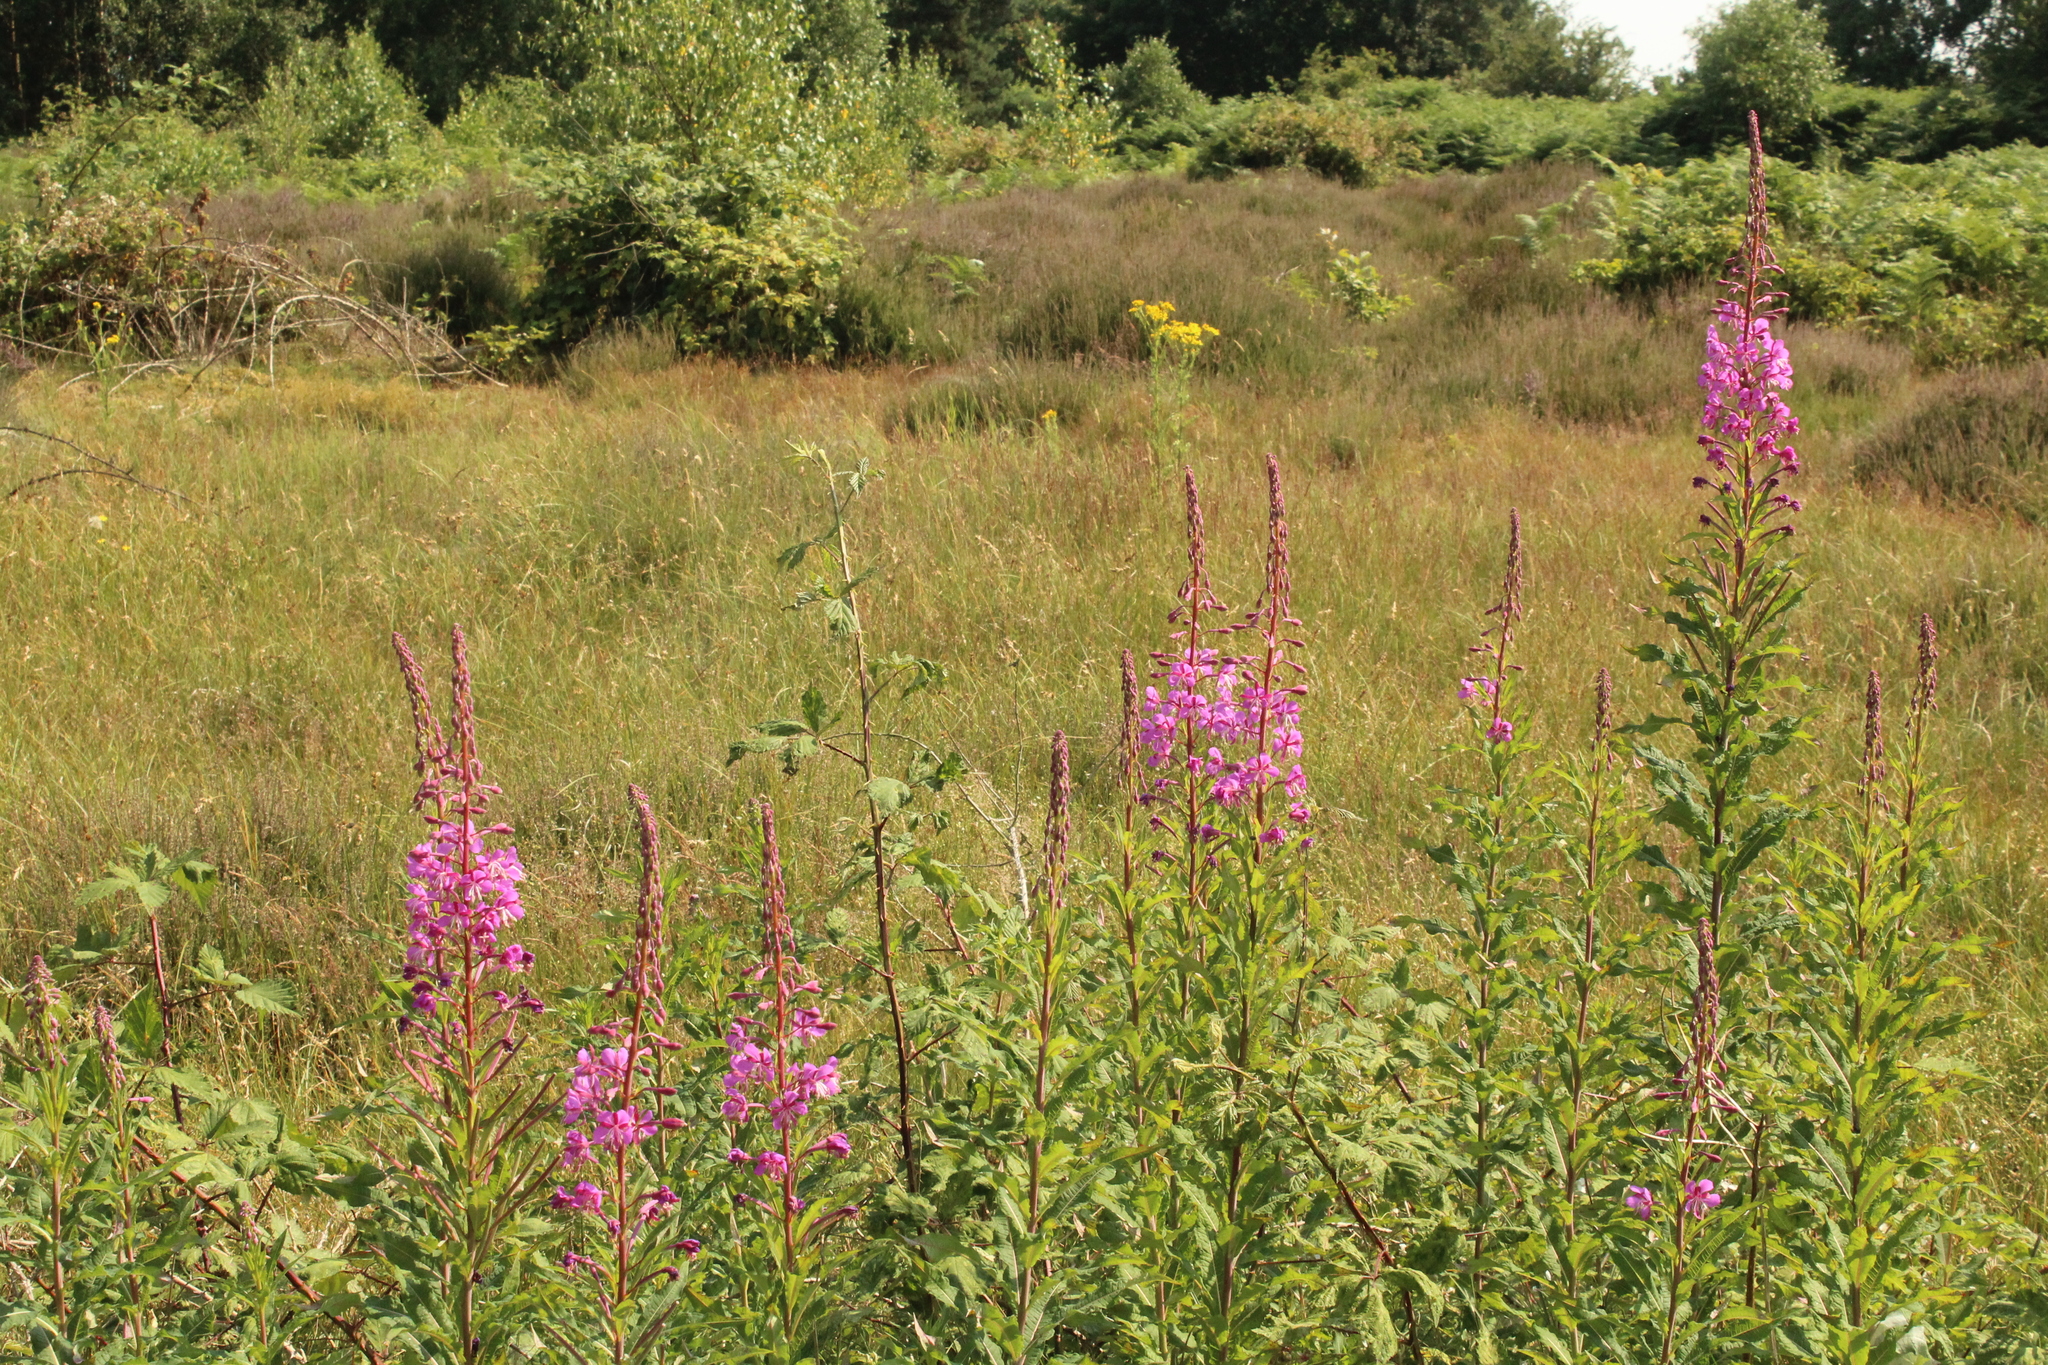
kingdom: Plantae
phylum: Tracheophyta
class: Magnoliopsida
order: Myrtales
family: Onagraceae
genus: Chamaenerion
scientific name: Chamaenerion angustifolium
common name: Fireweed
